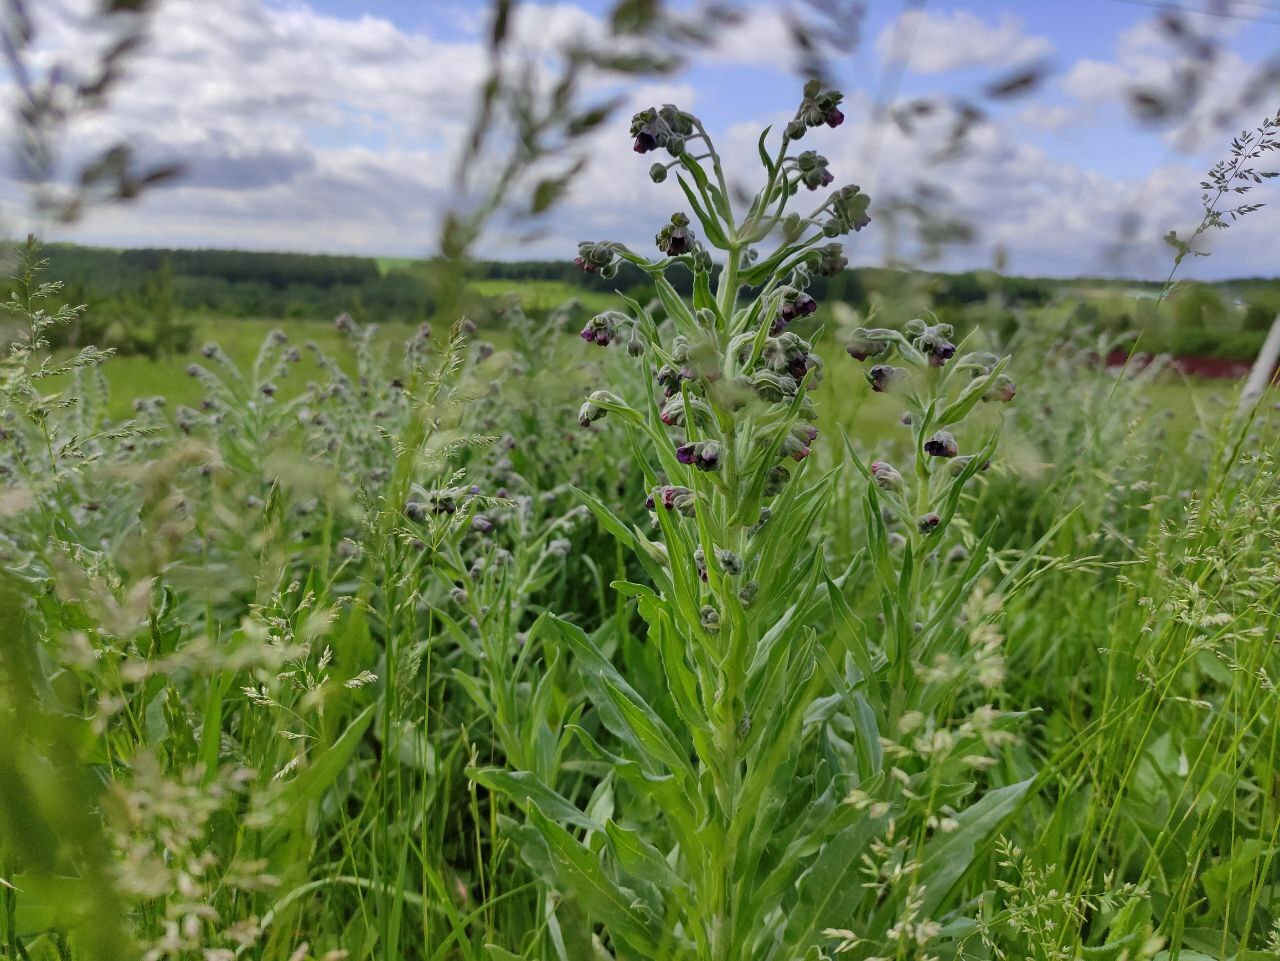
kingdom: Plantae
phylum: Tracheophyta
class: Magnoliopsida
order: Boraginales
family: Boraginaceae
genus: Cynoglossum
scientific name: Cynoglossum officinale
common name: Hound's-tongue
